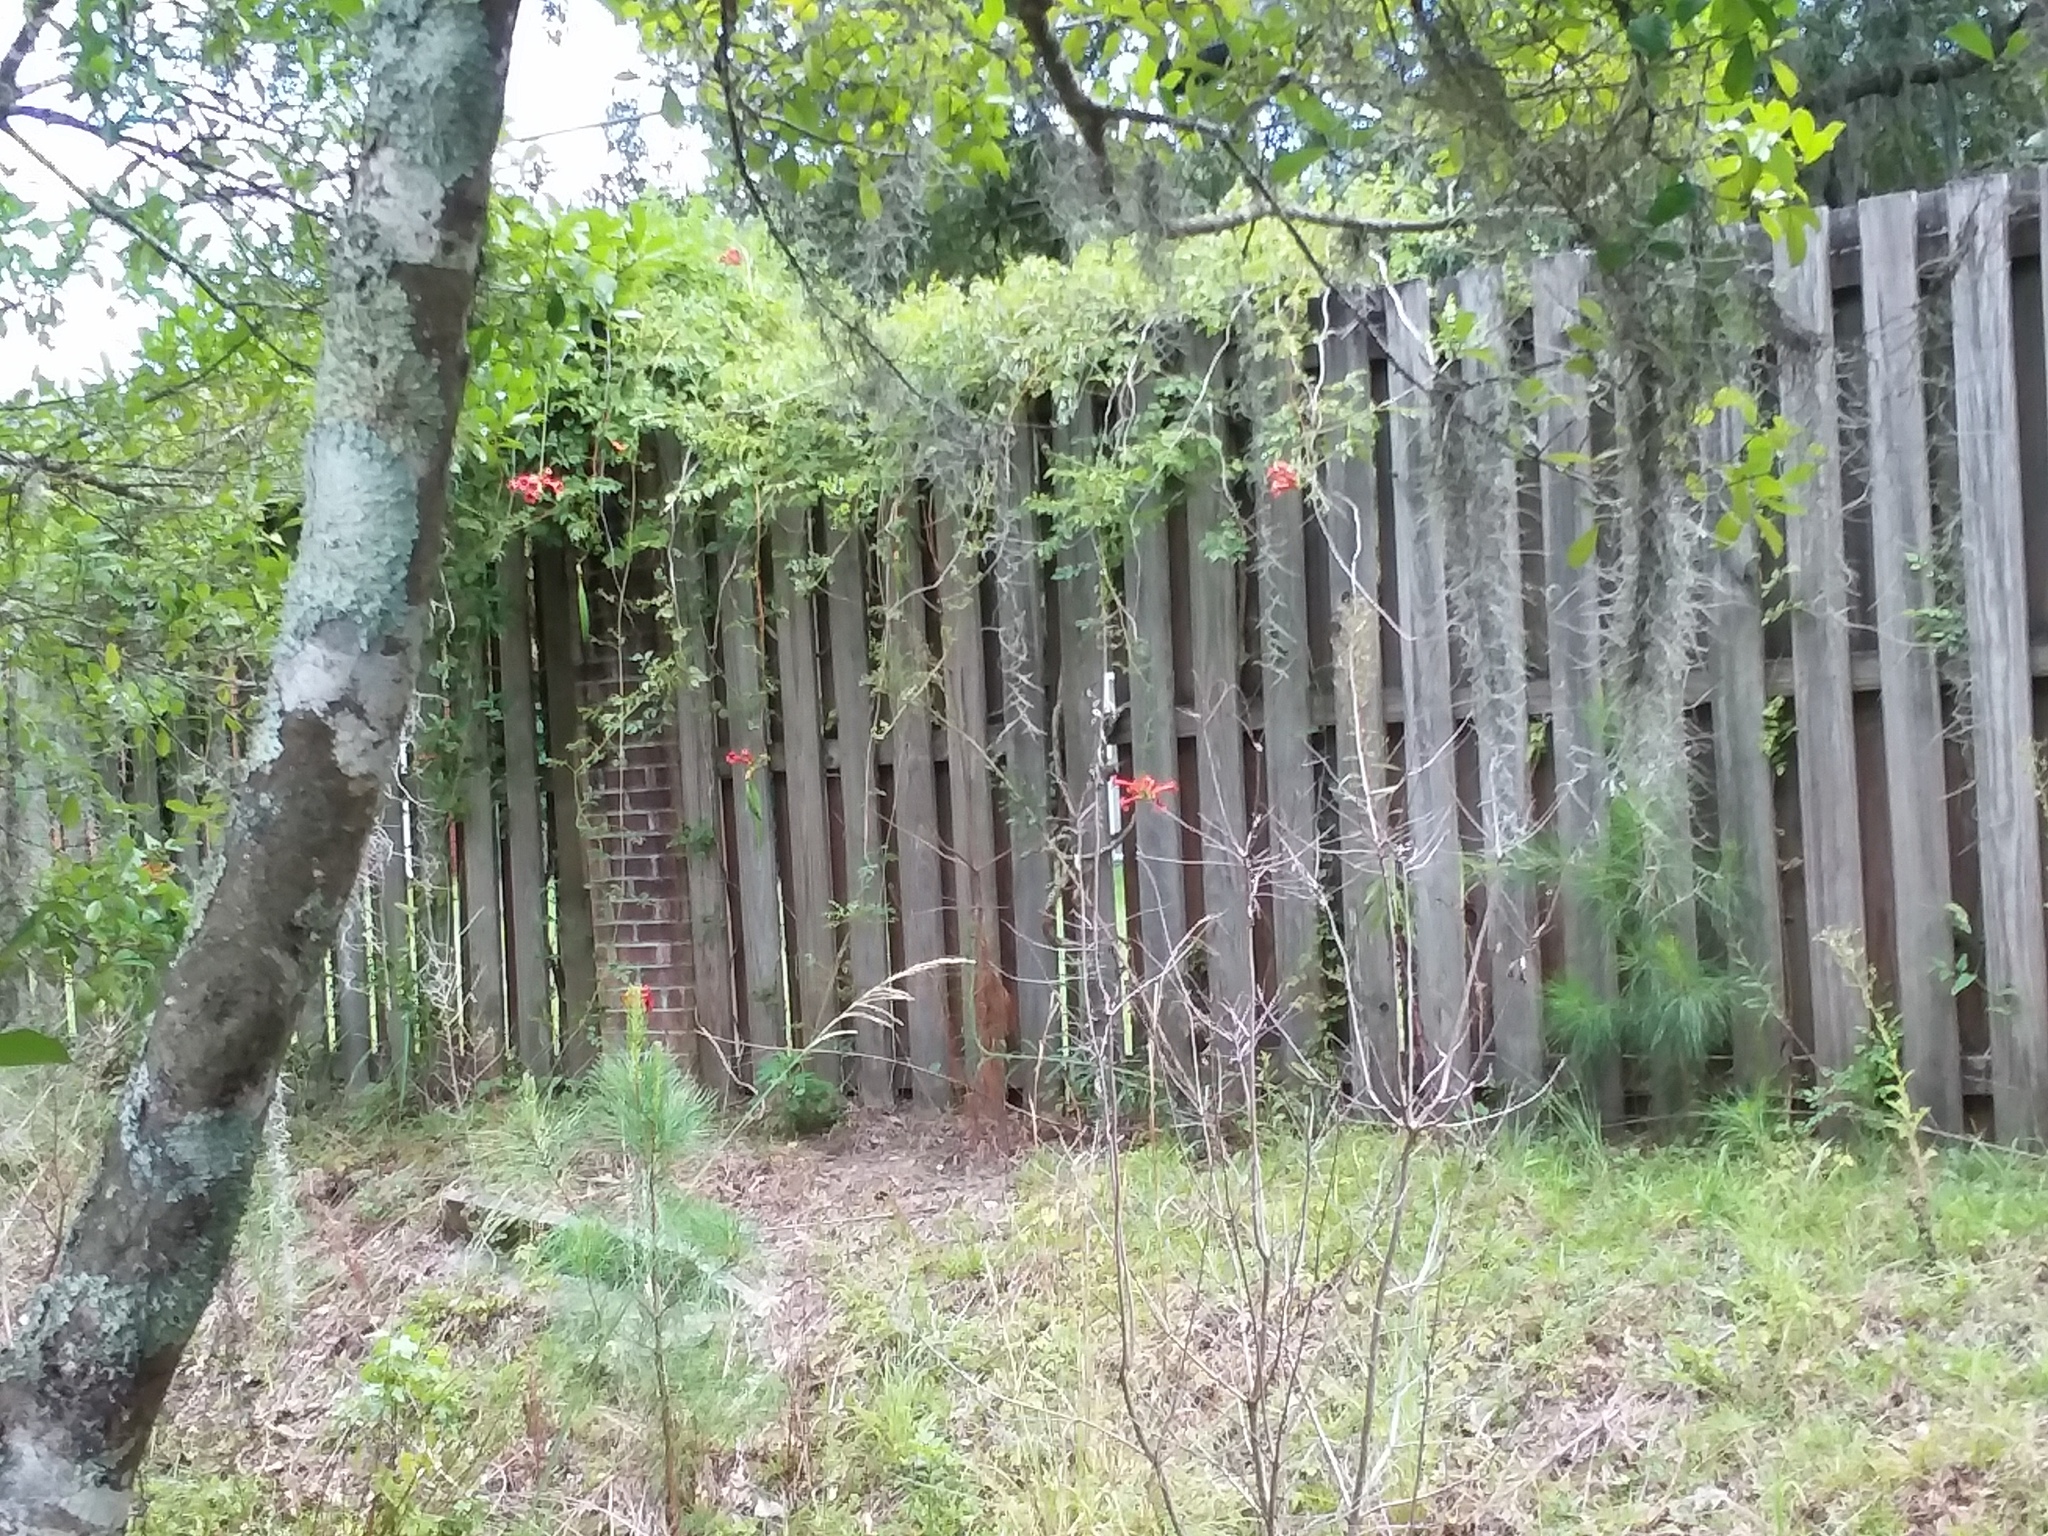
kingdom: Plantae
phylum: Tracheophyta
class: Magnoliopsida
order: Lamiales
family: Bignoniaceae
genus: Campsis
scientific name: Campsis radicans
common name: Trumpet-creeper
